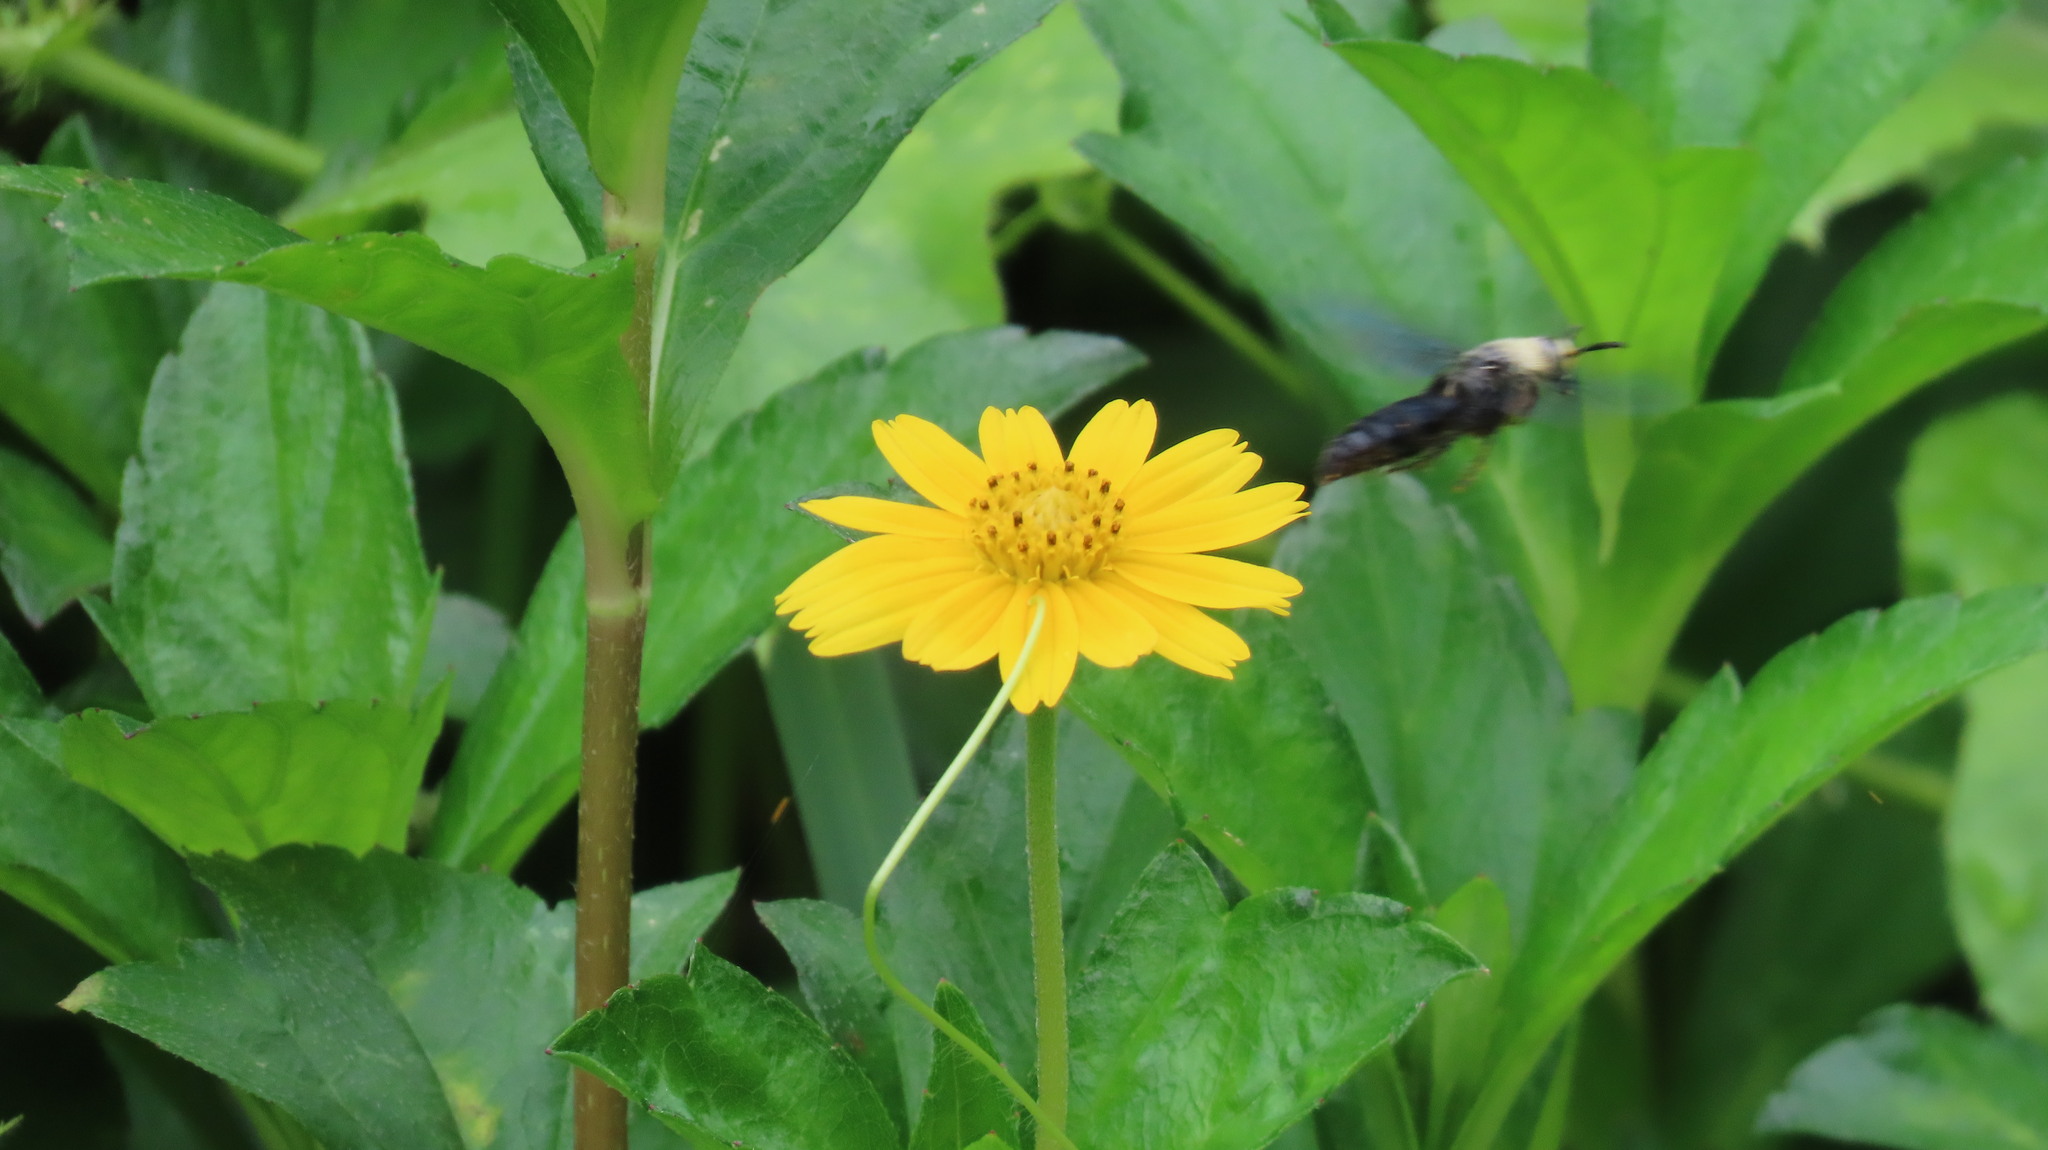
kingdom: Animalia
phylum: Arthropoda
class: Insecta
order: Hymenoptera
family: Scoliidae
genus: Campsomeriella
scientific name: Campsomeriella collaris
